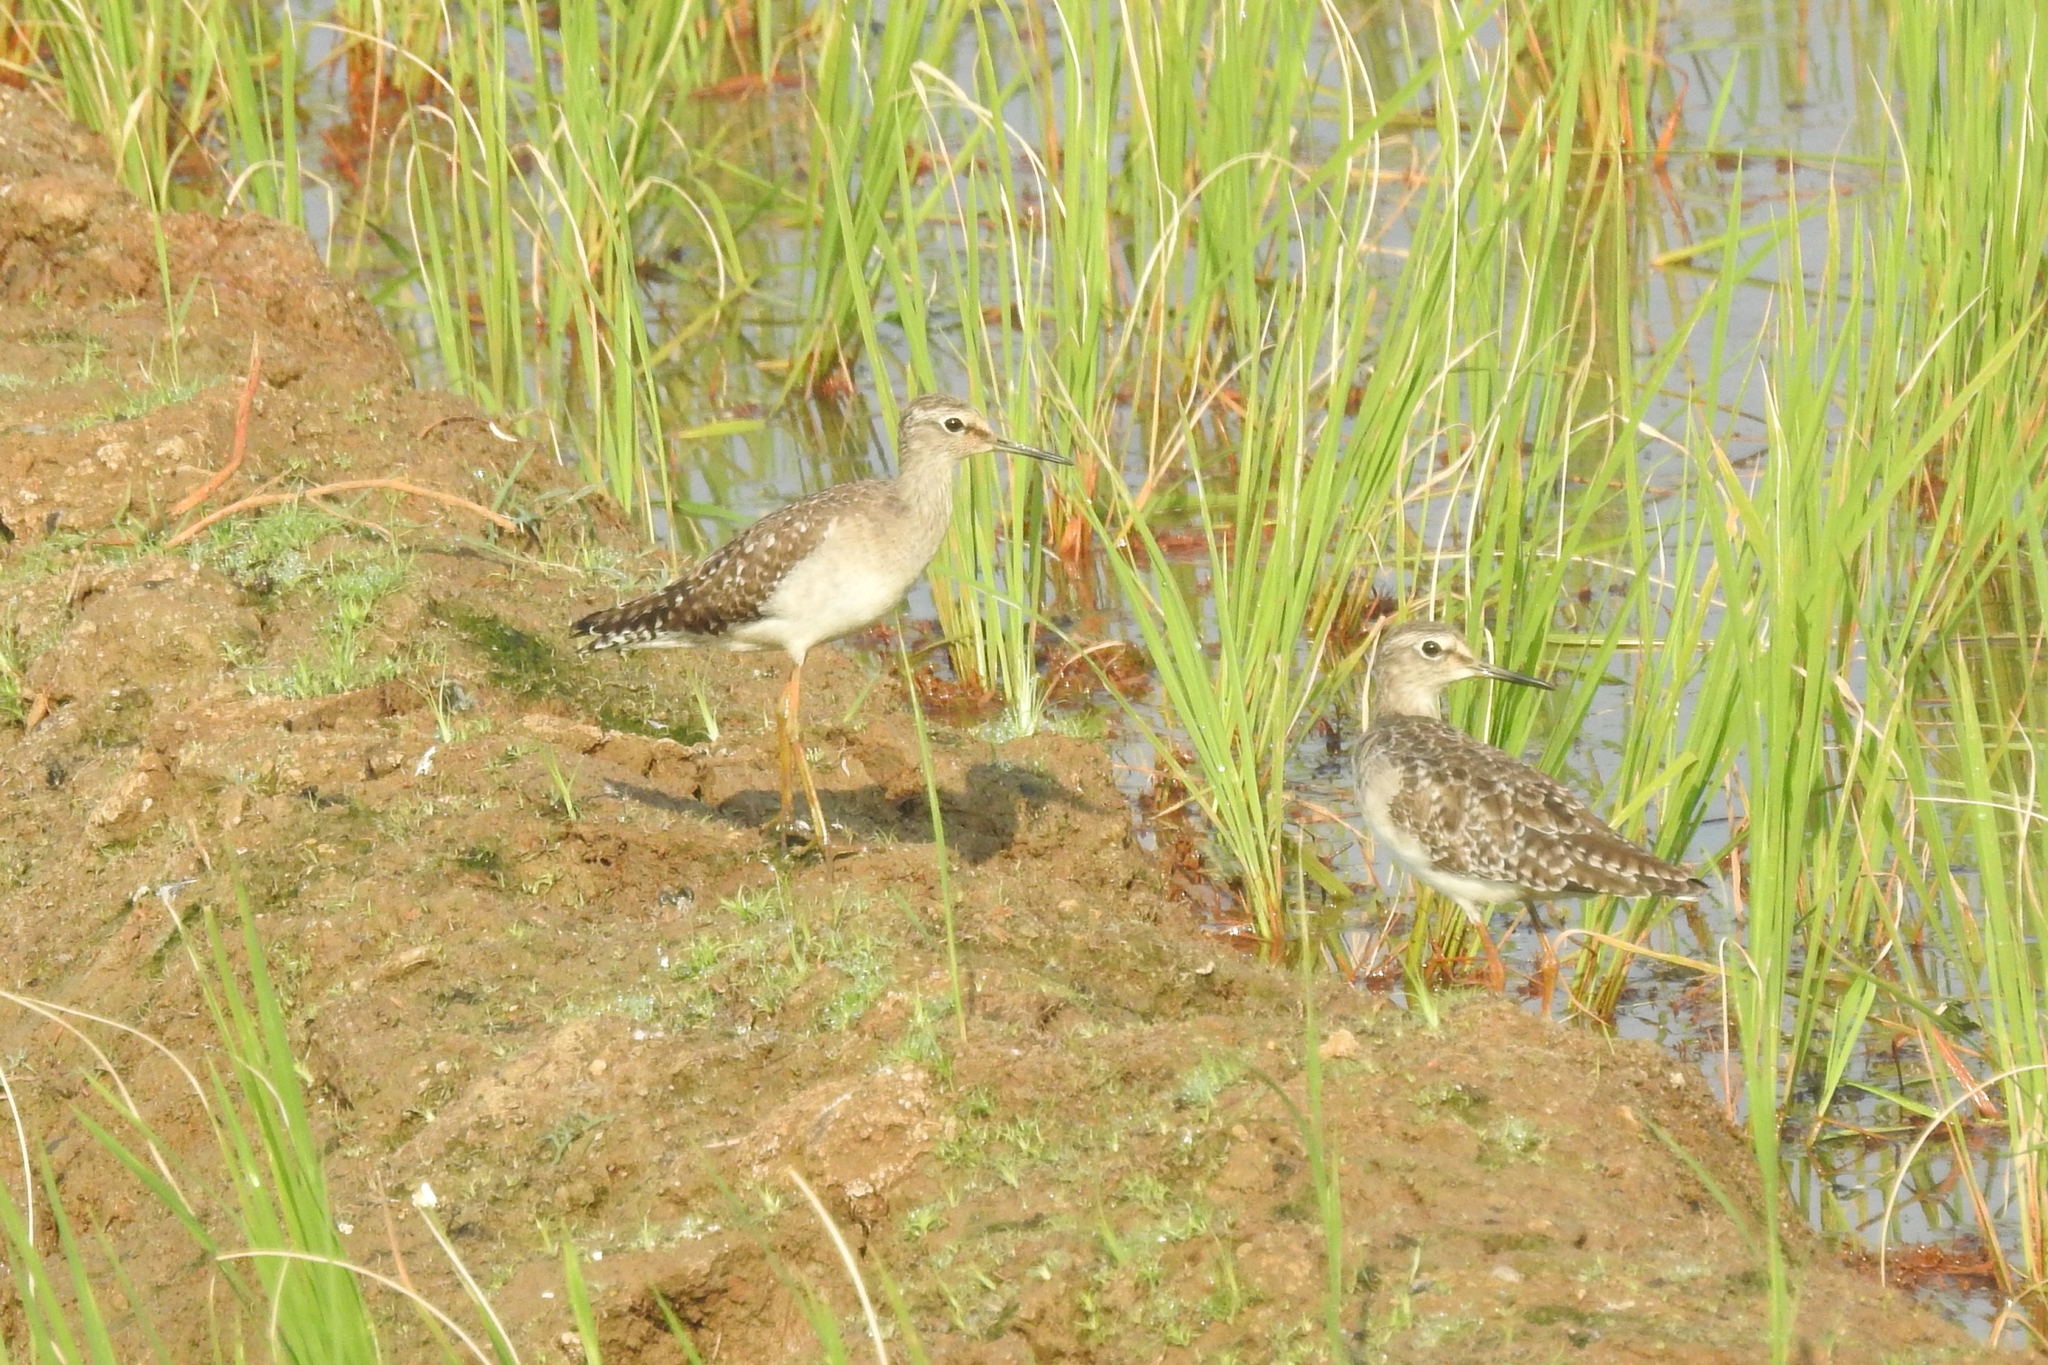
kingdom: Animalia
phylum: Chordata
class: Aves
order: Charadriiformes
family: Scolopacidae
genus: Tringa
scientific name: Tringa glareola
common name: Wood sandpiper
